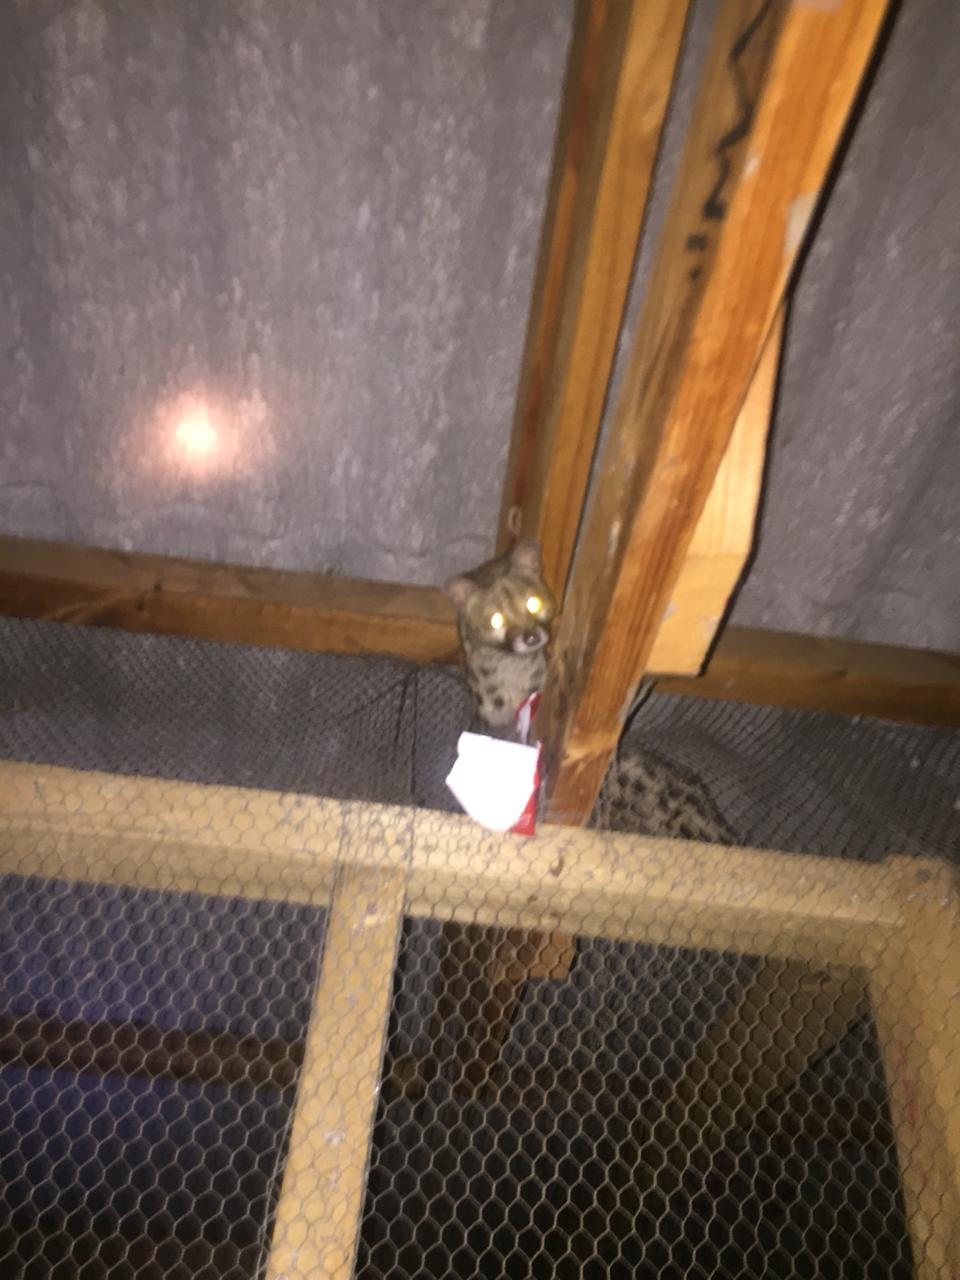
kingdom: Animalia
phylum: Chordata
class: Mammalia
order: Carnivora
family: Viverridae
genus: Genetta
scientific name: Genetta tigrina
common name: Cape genet
